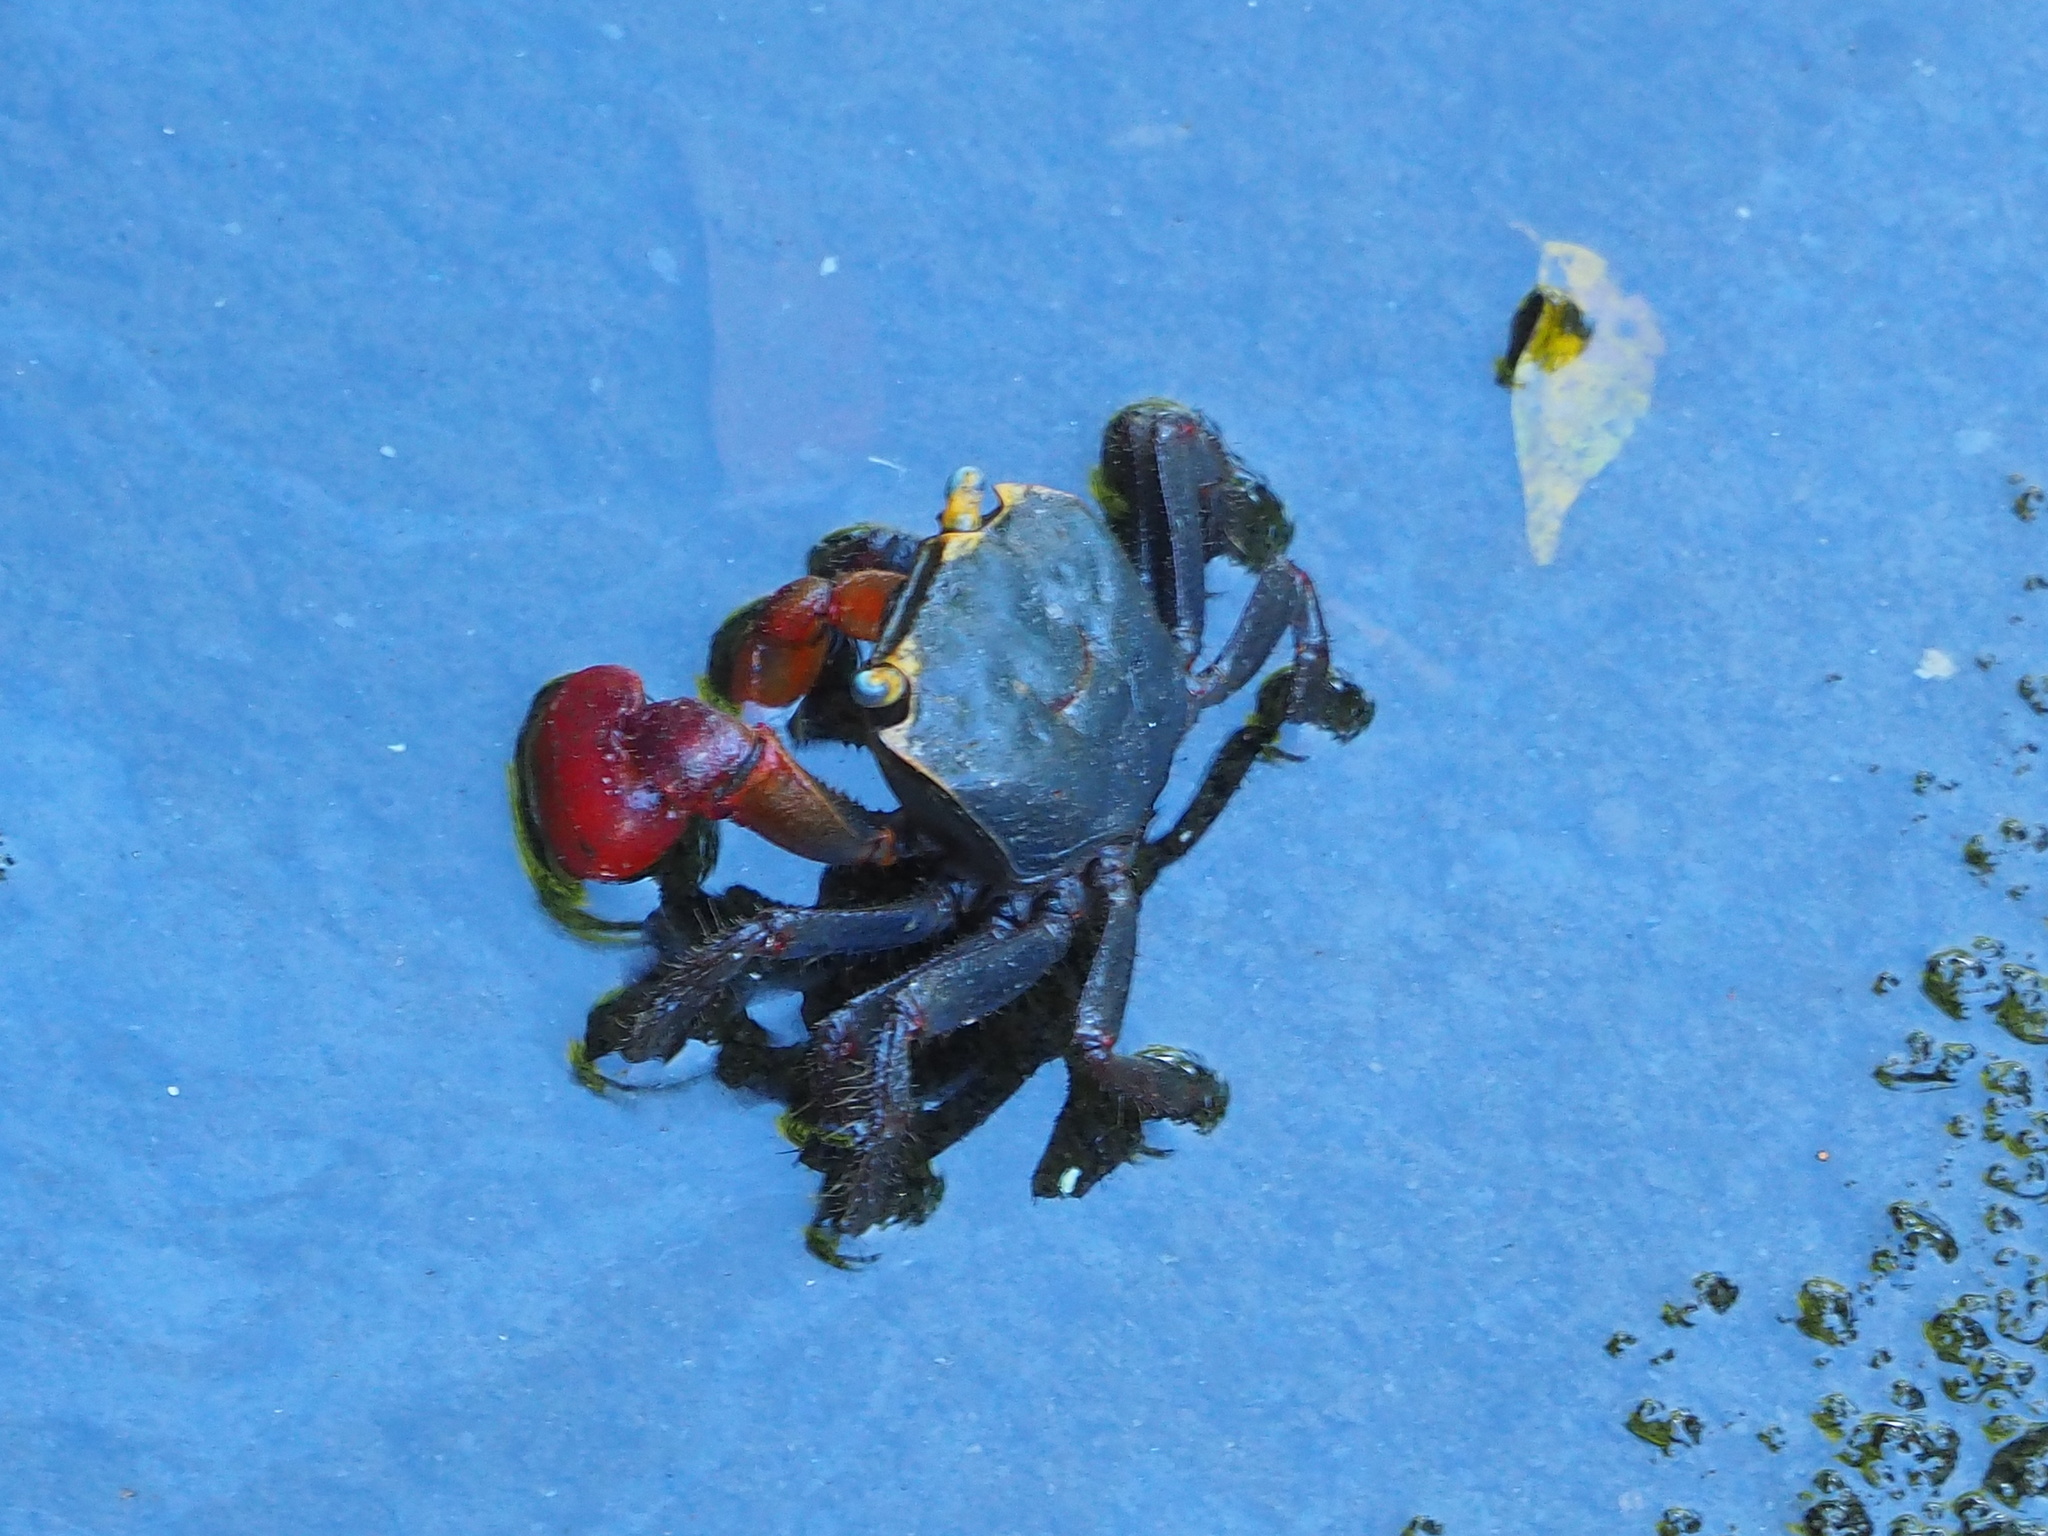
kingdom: Animalia
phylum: Arthropoda
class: Malacostraca
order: Decapoda
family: Sesarmidae
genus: Chiromantes
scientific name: Chiromantes haematocheir
